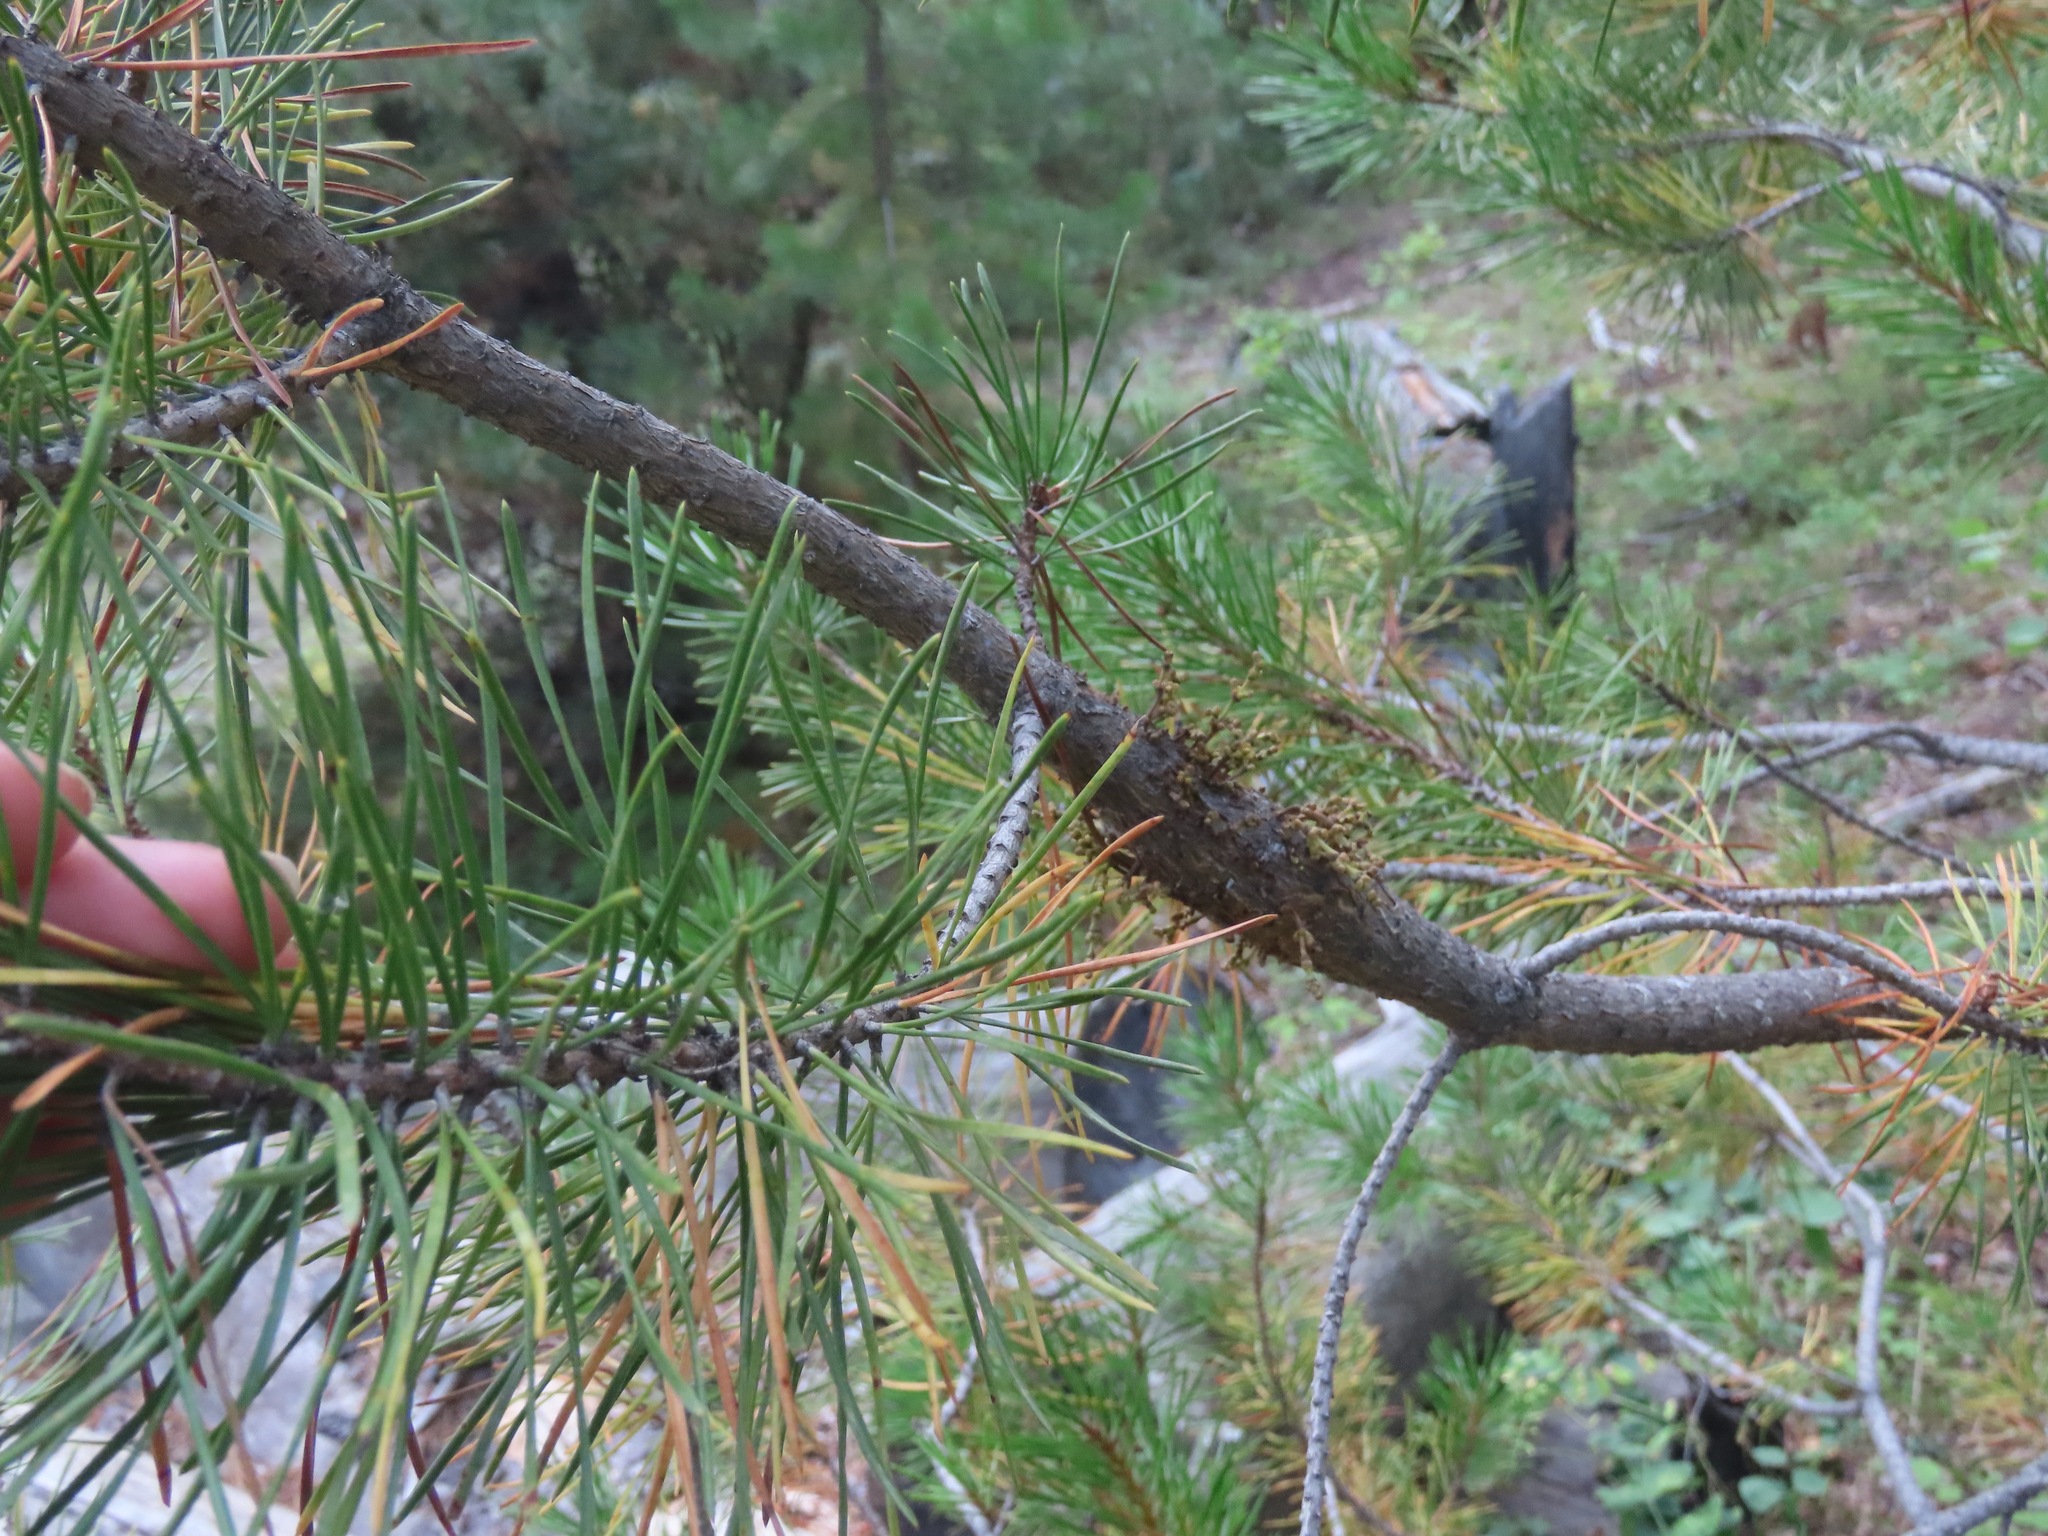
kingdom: Plantae
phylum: Tracheophyta
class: Magnoliopsida
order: Santalales
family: Viscaceae
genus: Arceuthobium
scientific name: Arceuthobium americanum
